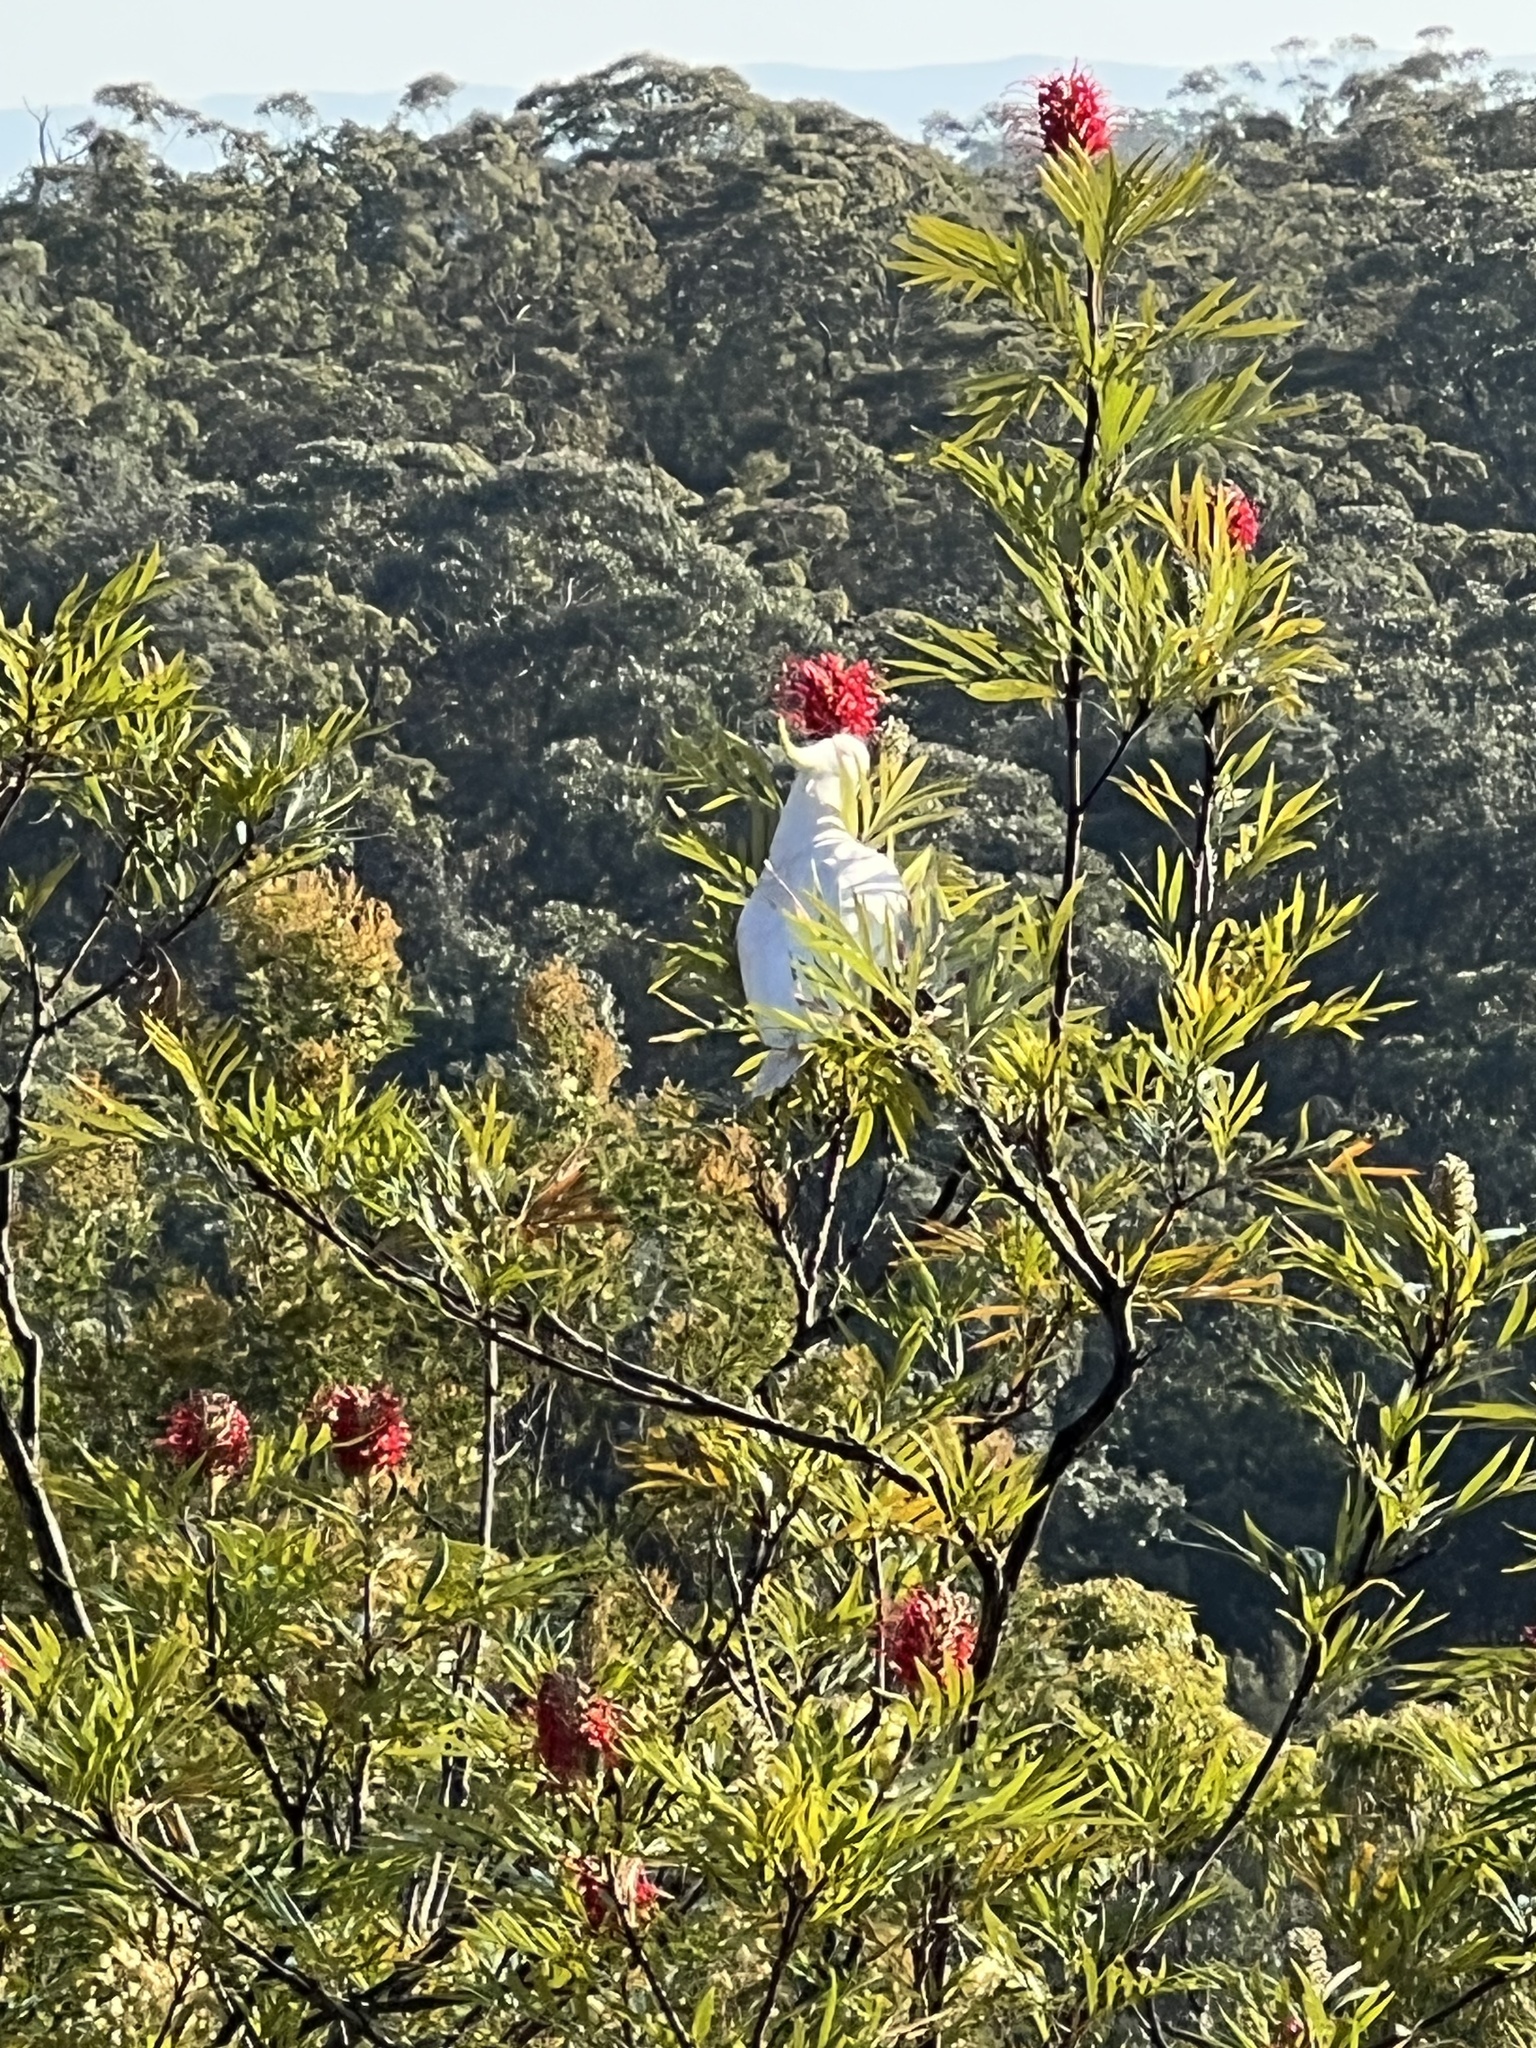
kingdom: Animalia
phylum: Chordata
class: Aves
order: Psittaciformes
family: Psittacidae
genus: Cacatua
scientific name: Cacatua galerita
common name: Sulphur-crested cockatoo
